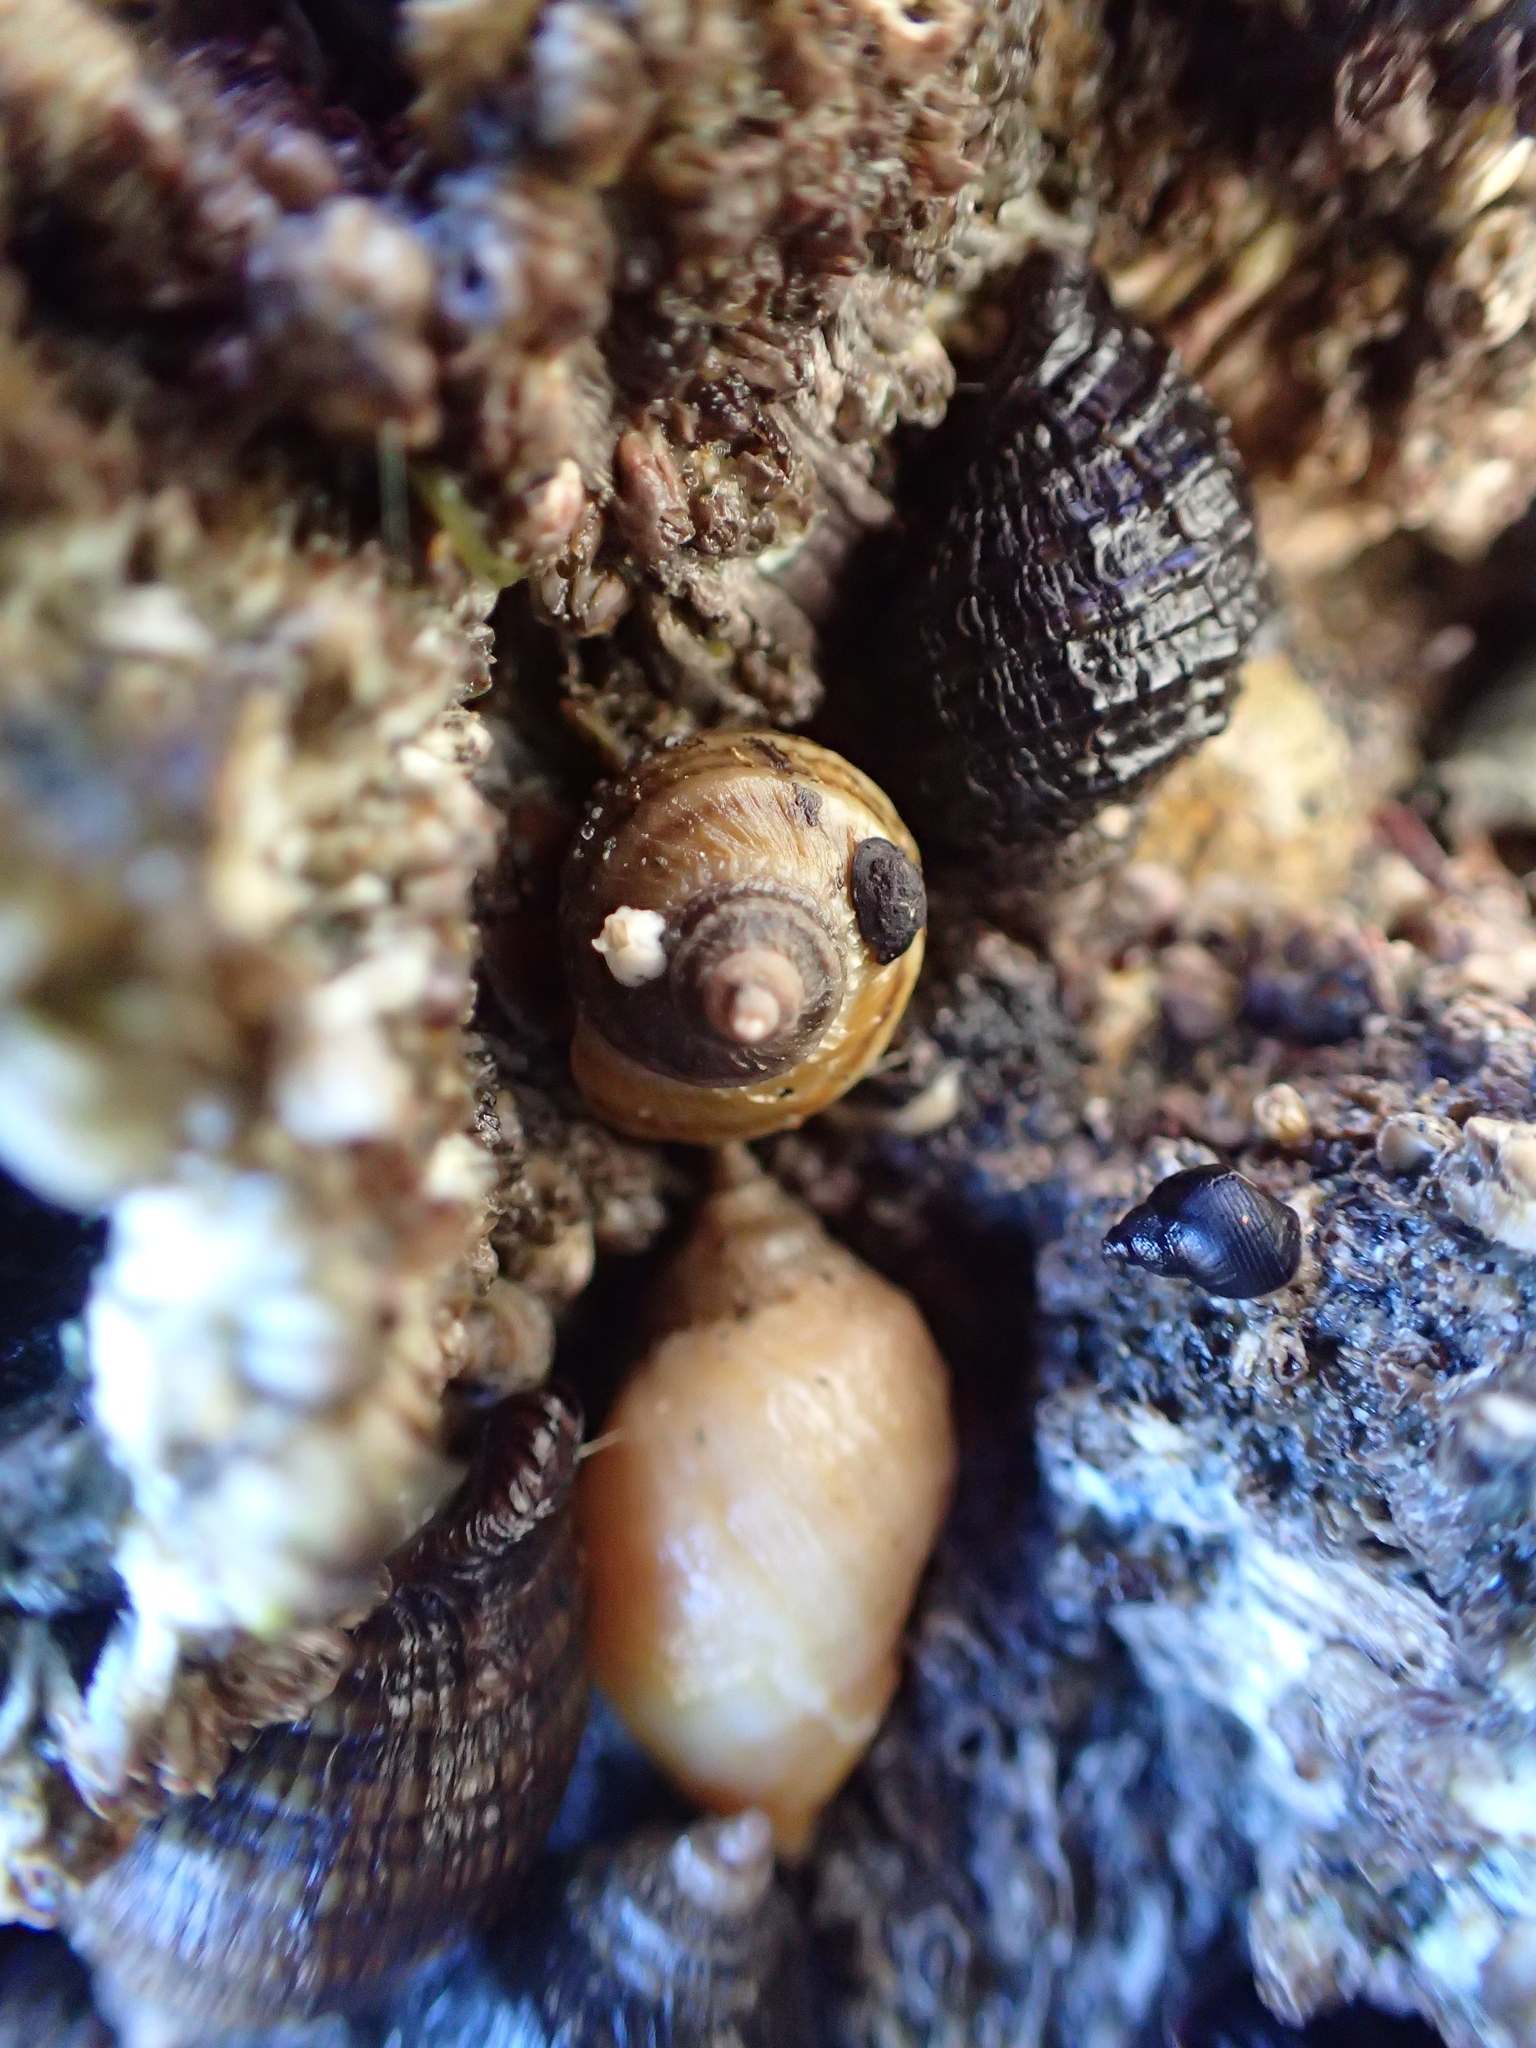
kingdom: Animalia
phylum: Mollusca
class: Gastropoda
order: Neogastropoda
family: Muricidae
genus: Nucella
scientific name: Nucella ostrina
